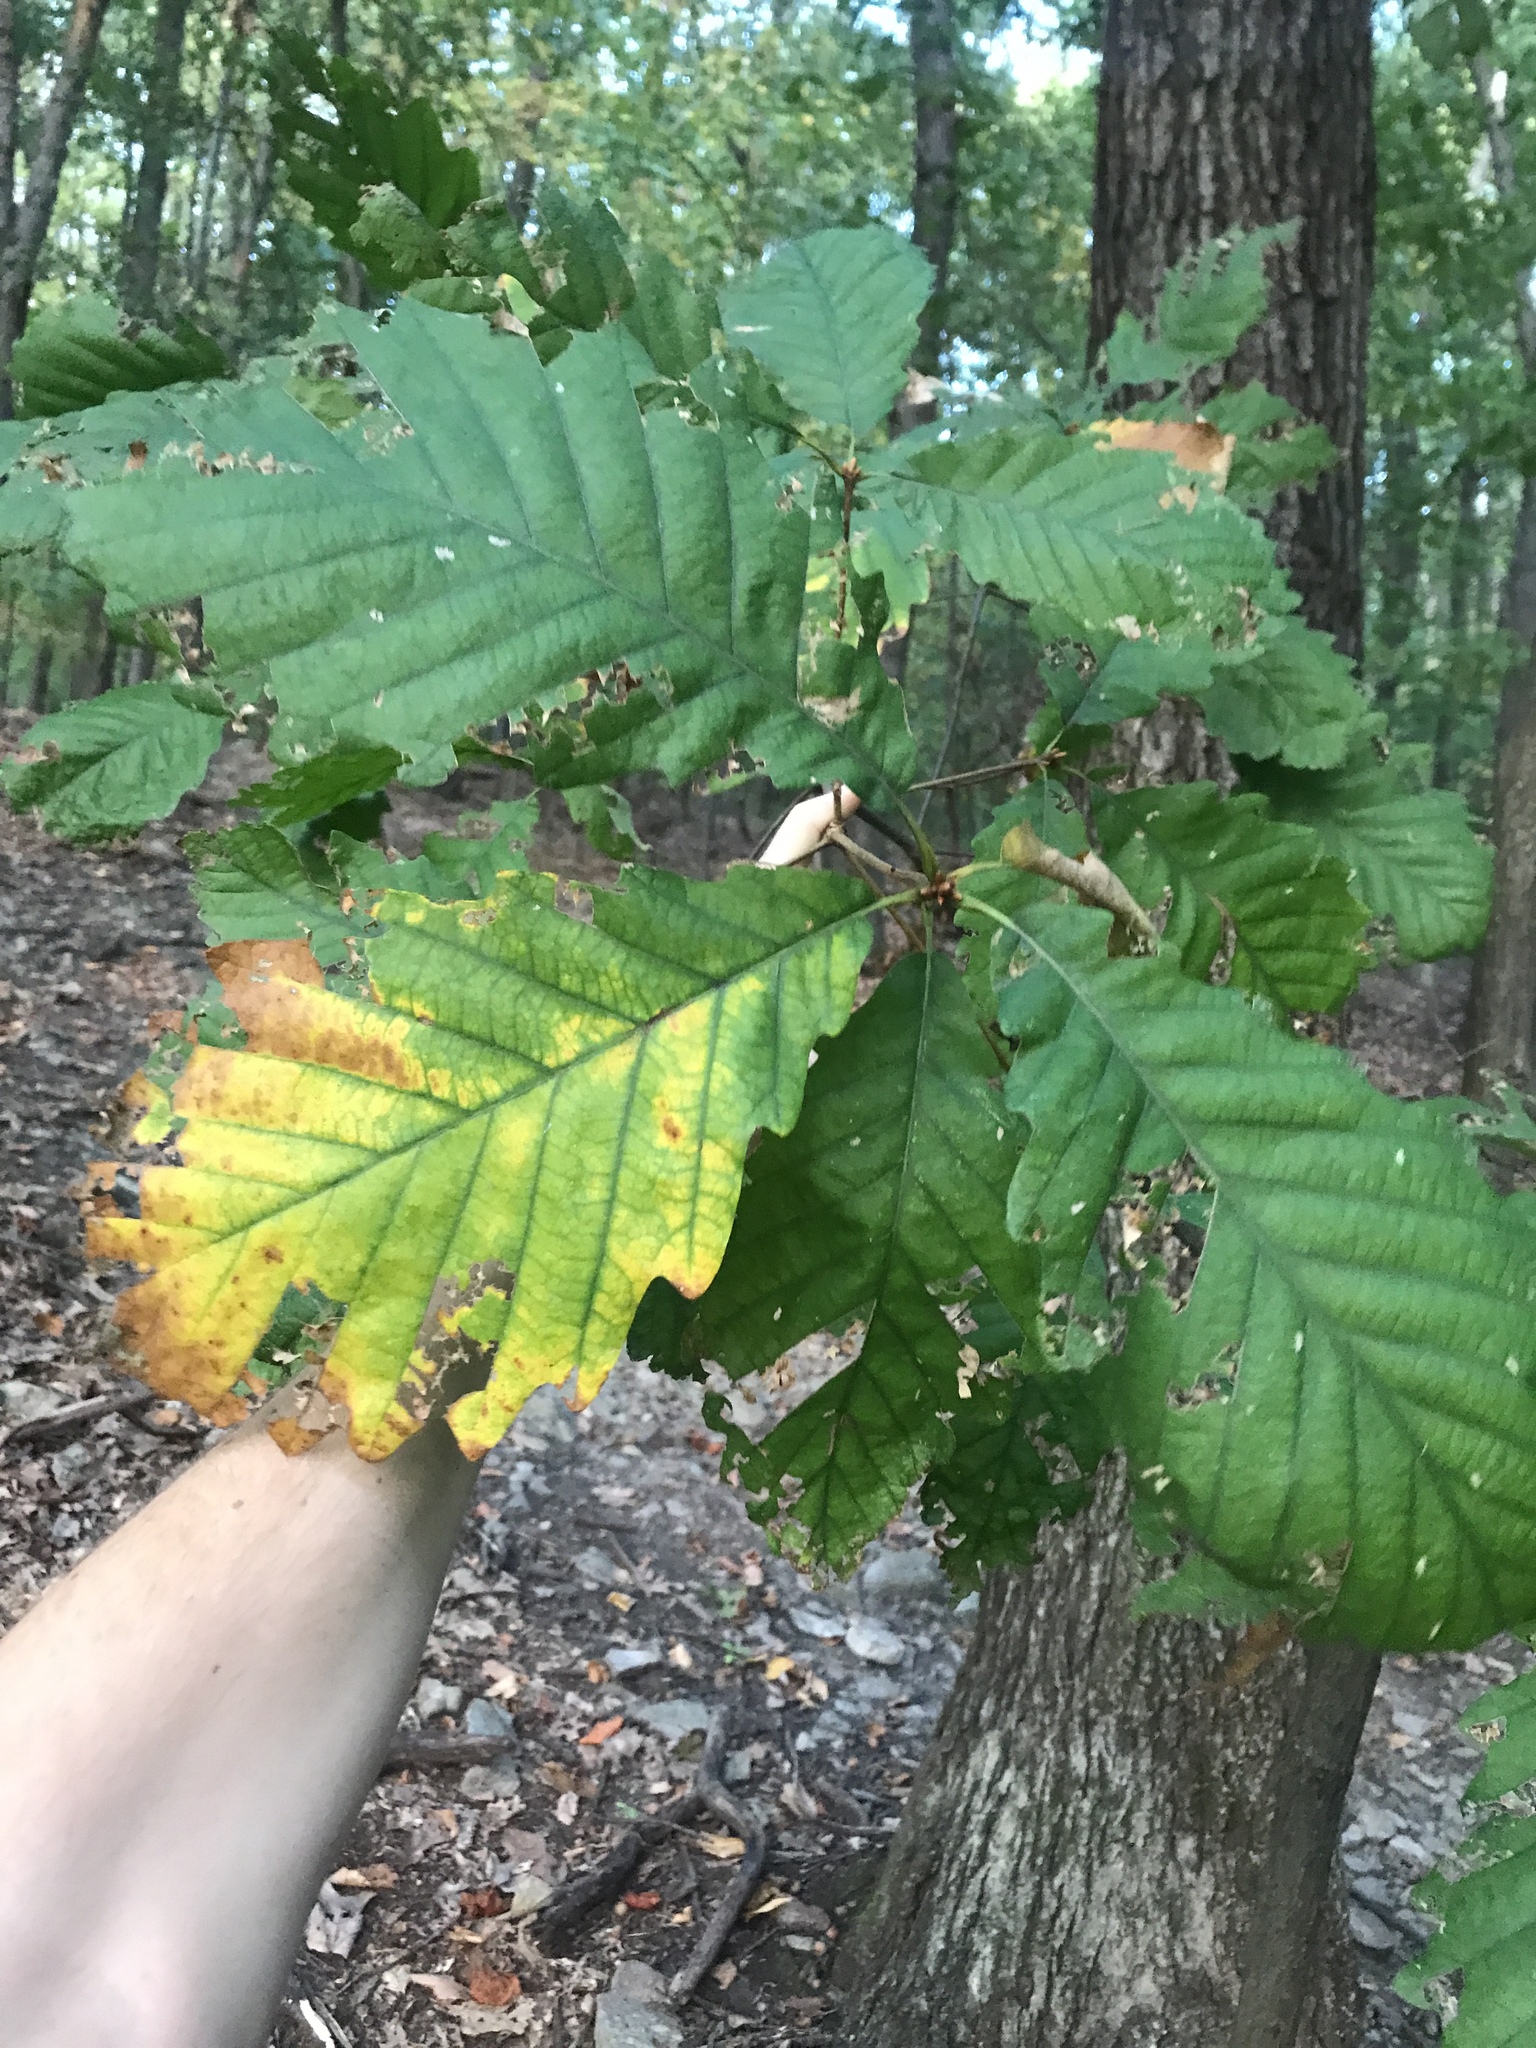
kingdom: Plantae
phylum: Tracheophyta
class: Magnoliopsida
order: Fagales
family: Fagaceae
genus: Quercus
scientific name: Quercus montana
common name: Chestnut oak
